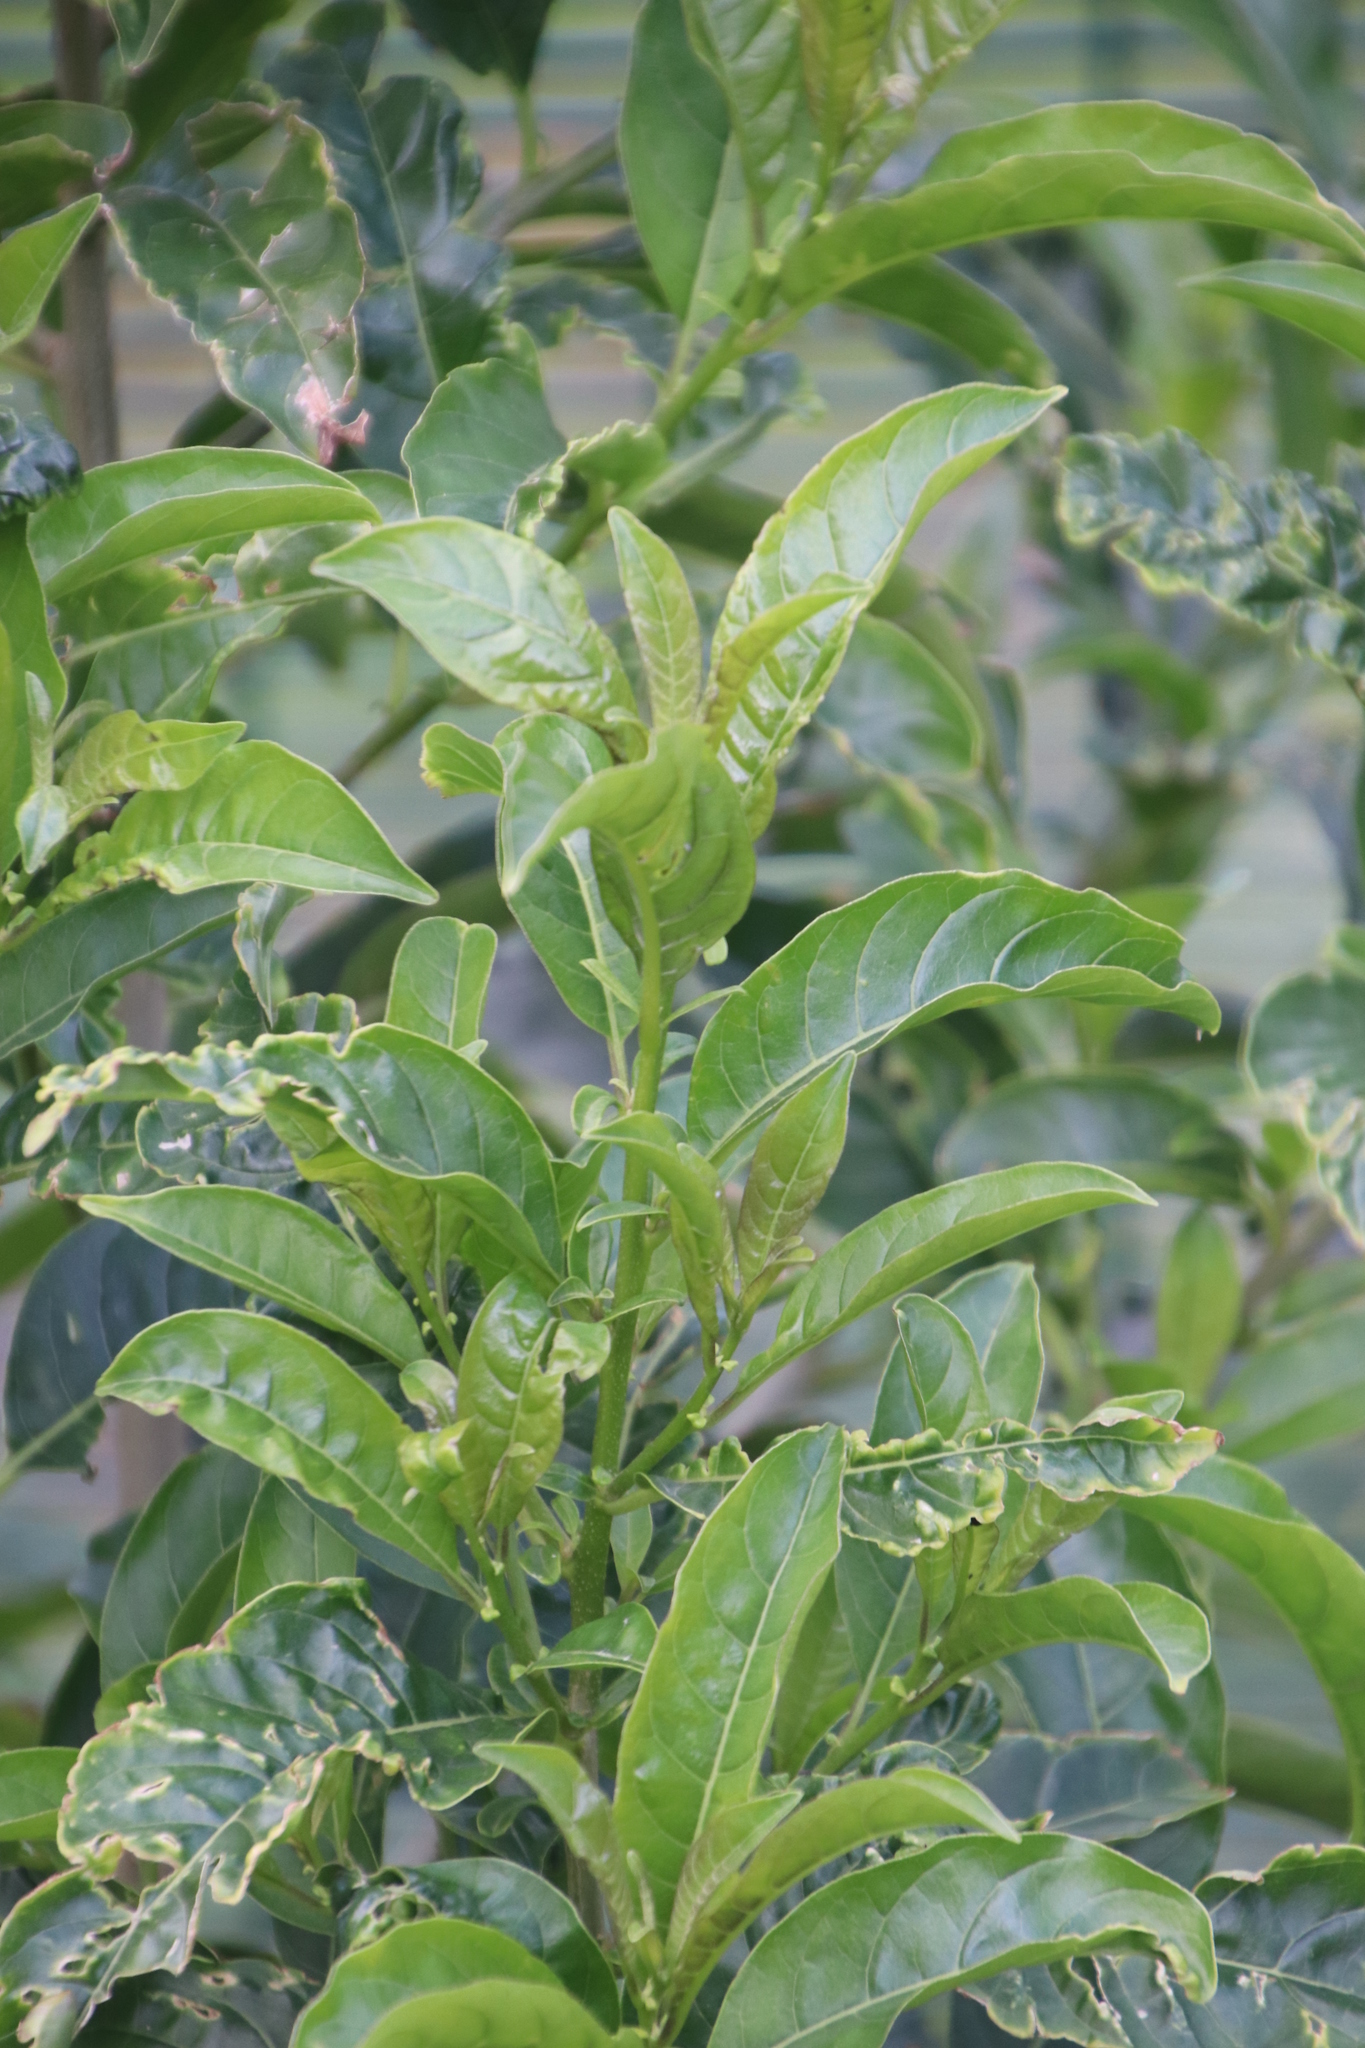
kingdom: Plantae
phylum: Tracheophyta
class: Magnoliopsida
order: Solanales
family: Solanaceae
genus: Cestrum
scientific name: Cestrum laevigatum
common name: Inkberry
